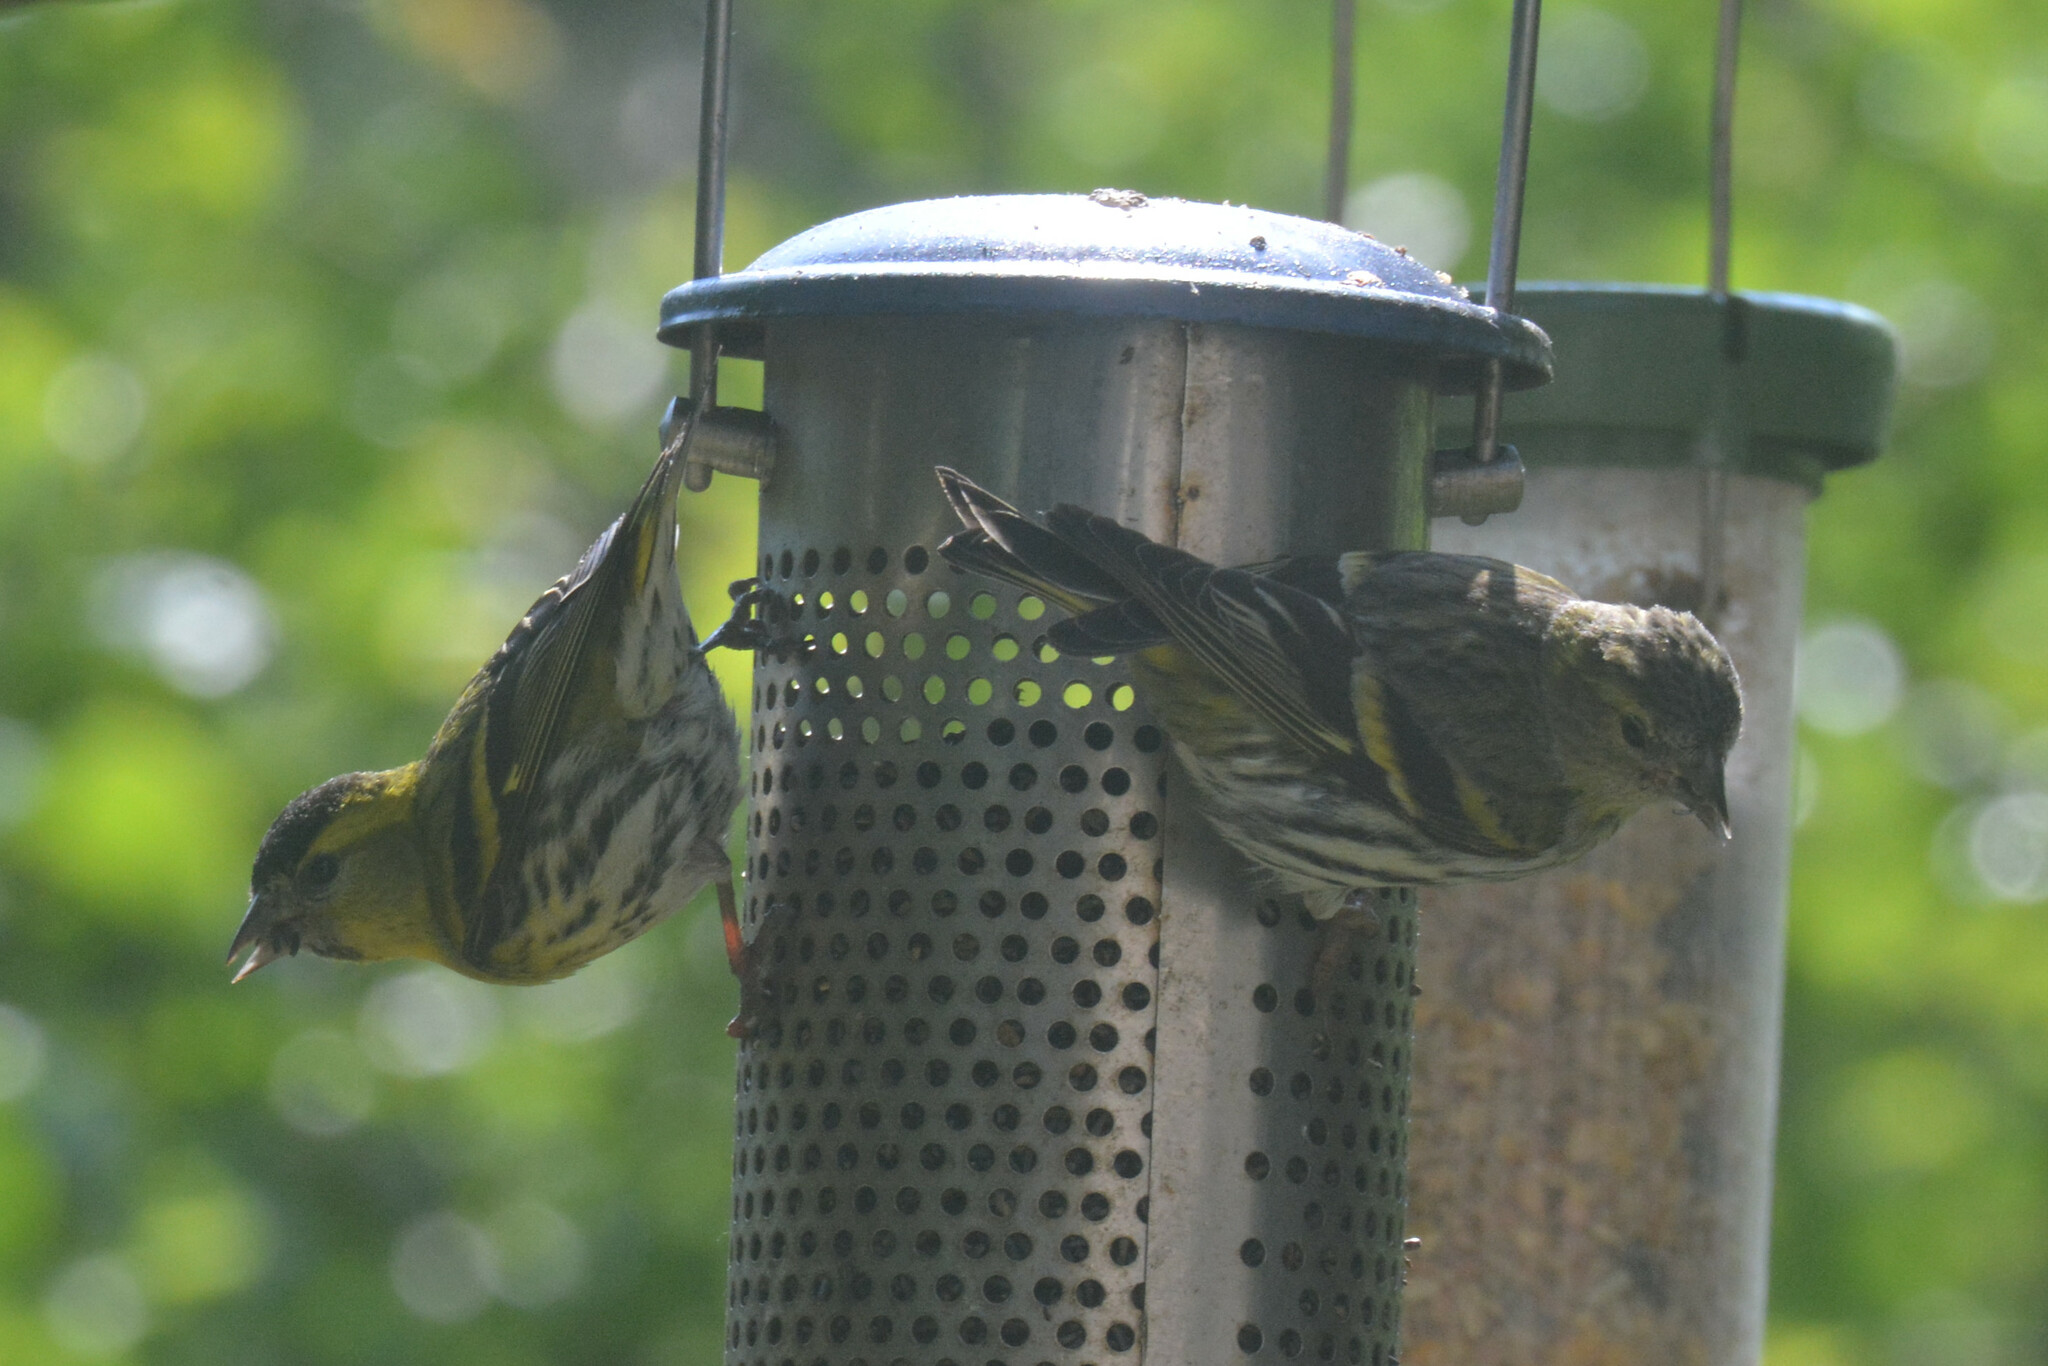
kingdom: Animalia
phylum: Chordata
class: Aves
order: Passeriformes
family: Fringillidae
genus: Spinus
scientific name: Spinus spinus
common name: Eurasian siskin
